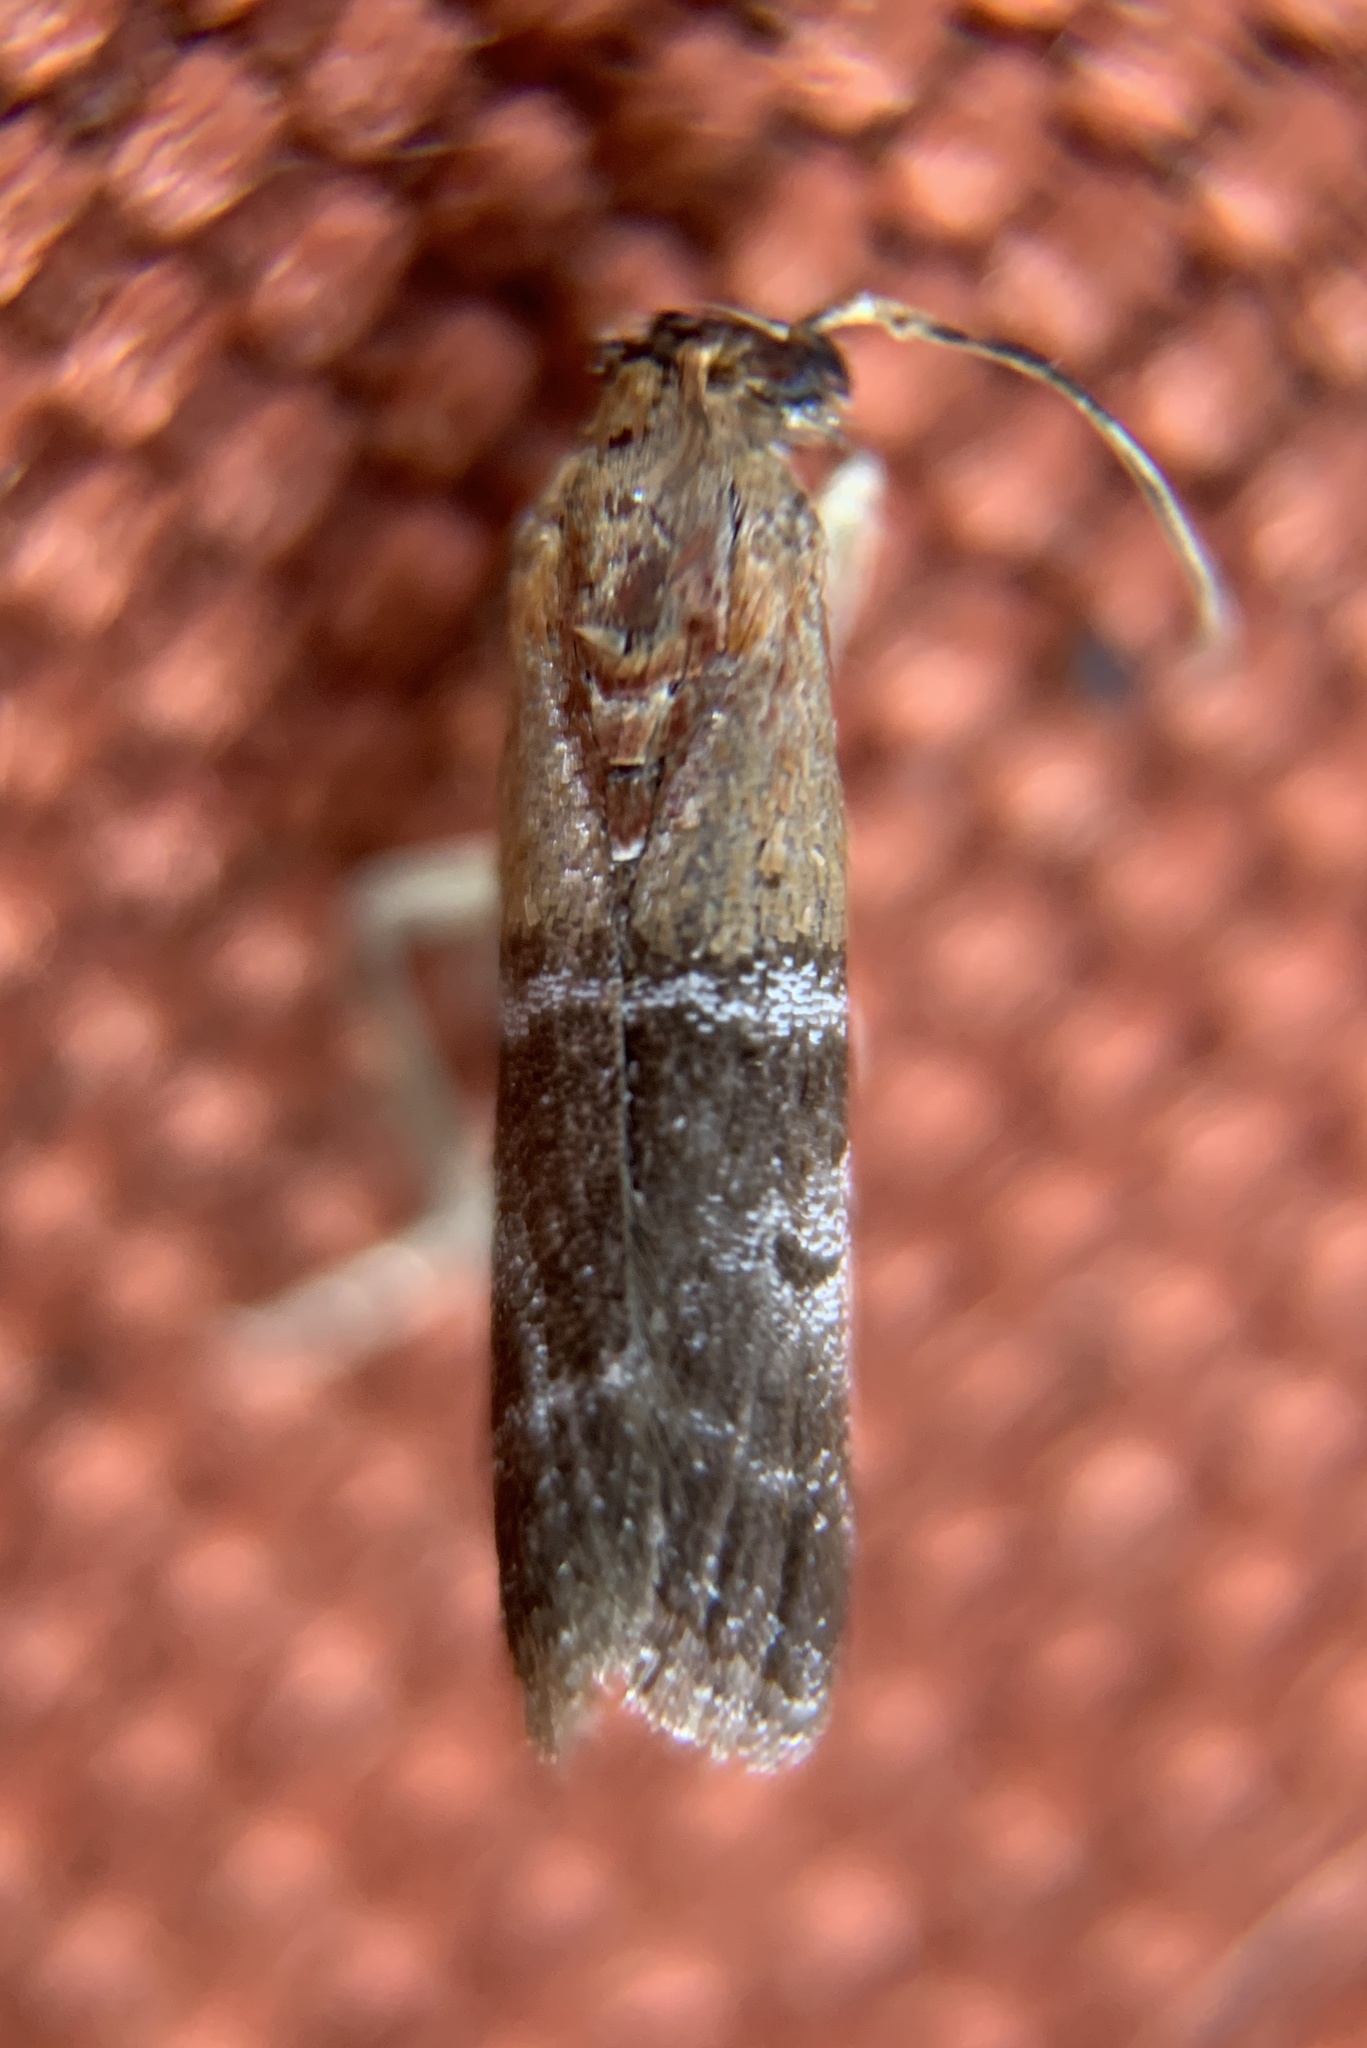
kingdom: Animalia
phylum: Arthropoda
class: Insecta
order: Lepidoptera
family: Pyralidae
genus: Moodna
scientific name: Moodna pallidostrinella
